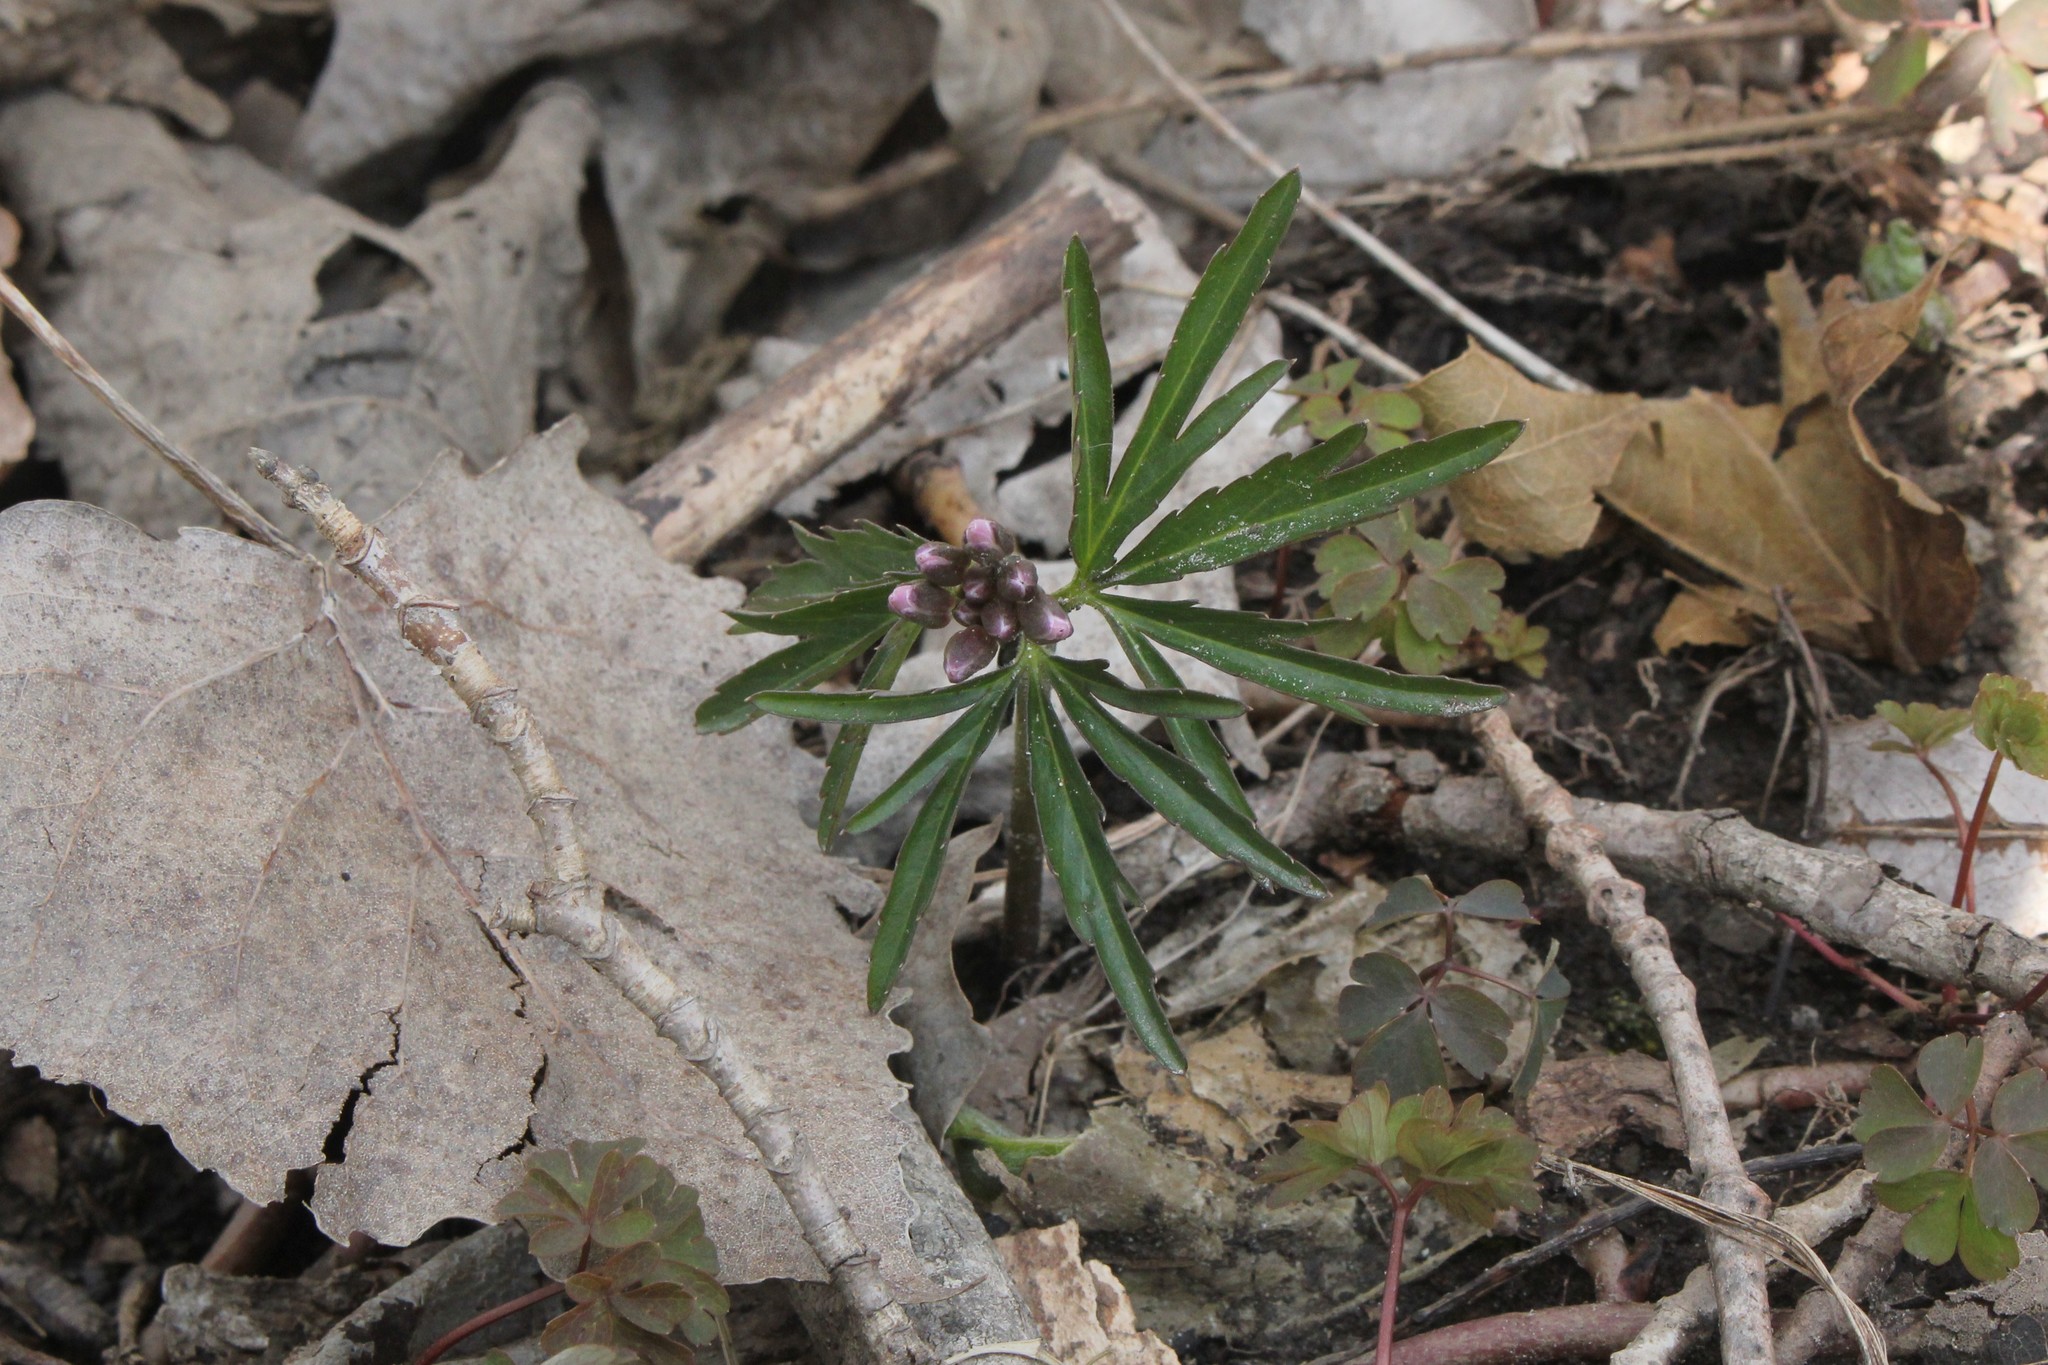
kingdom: Plantae
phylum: Tracheophyta
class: Magnoliopsida
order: Brassicales
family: Brassicaceae
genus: Cardamine
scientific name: Cardamine concatenata
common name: Cut-leaf toothcup
